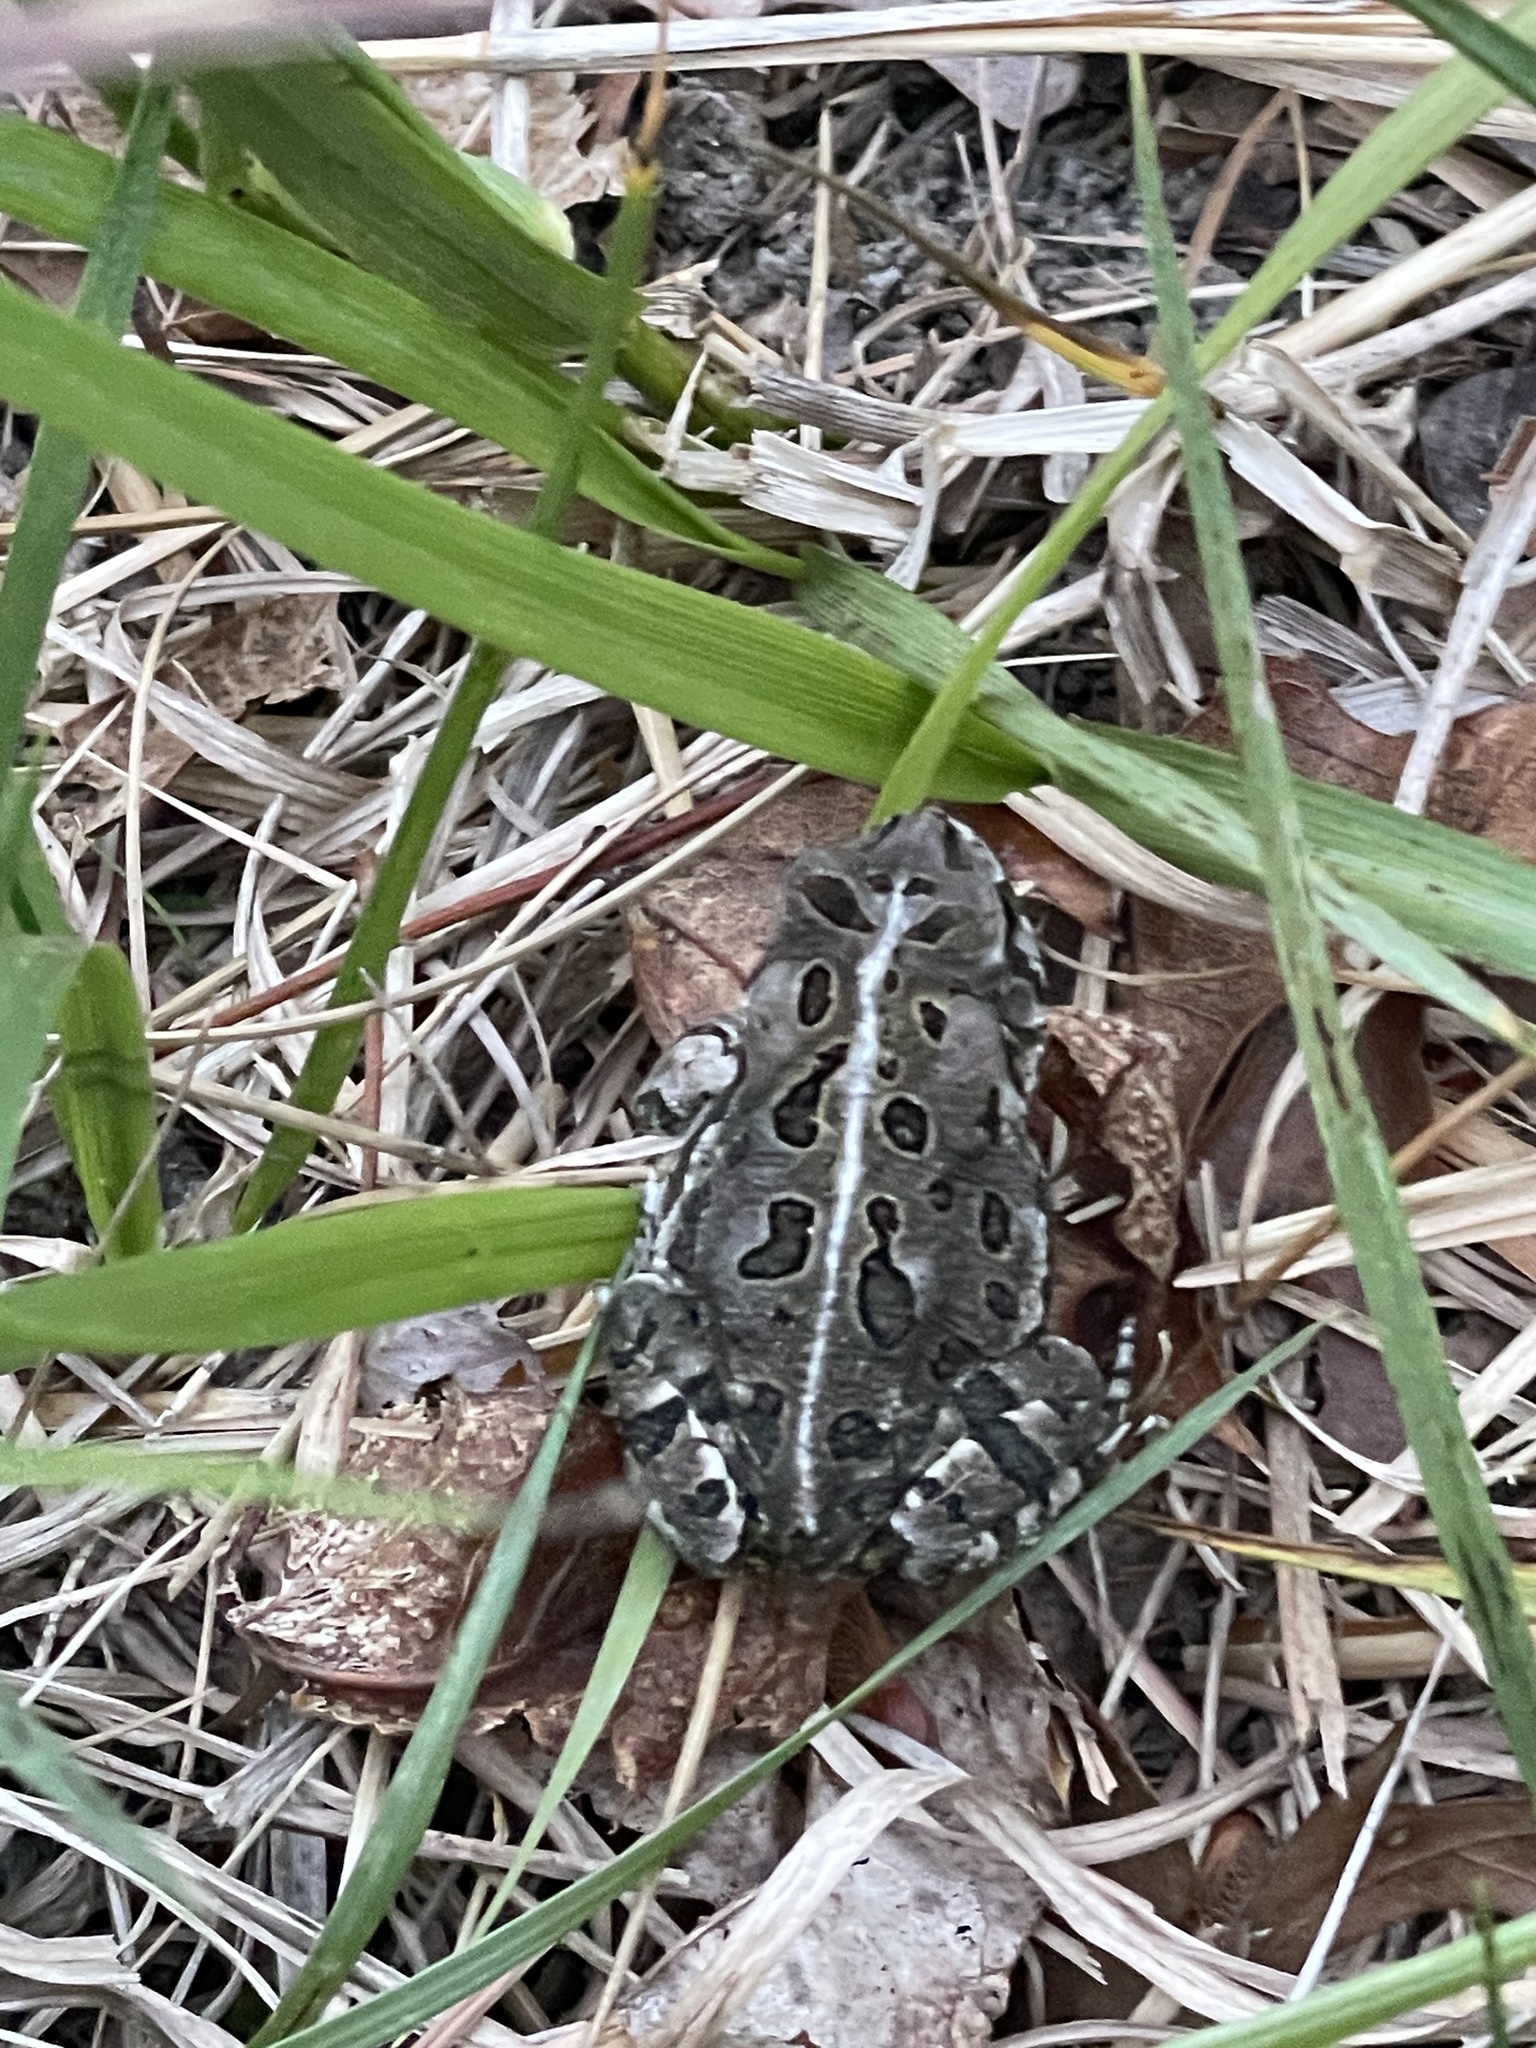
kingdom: Animalia
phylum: Chordata
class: Amphibia
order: Anura
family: Bufonidae
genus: Anaxyrus
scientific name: Anaxyrus fowleri
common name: Fowler's toad
